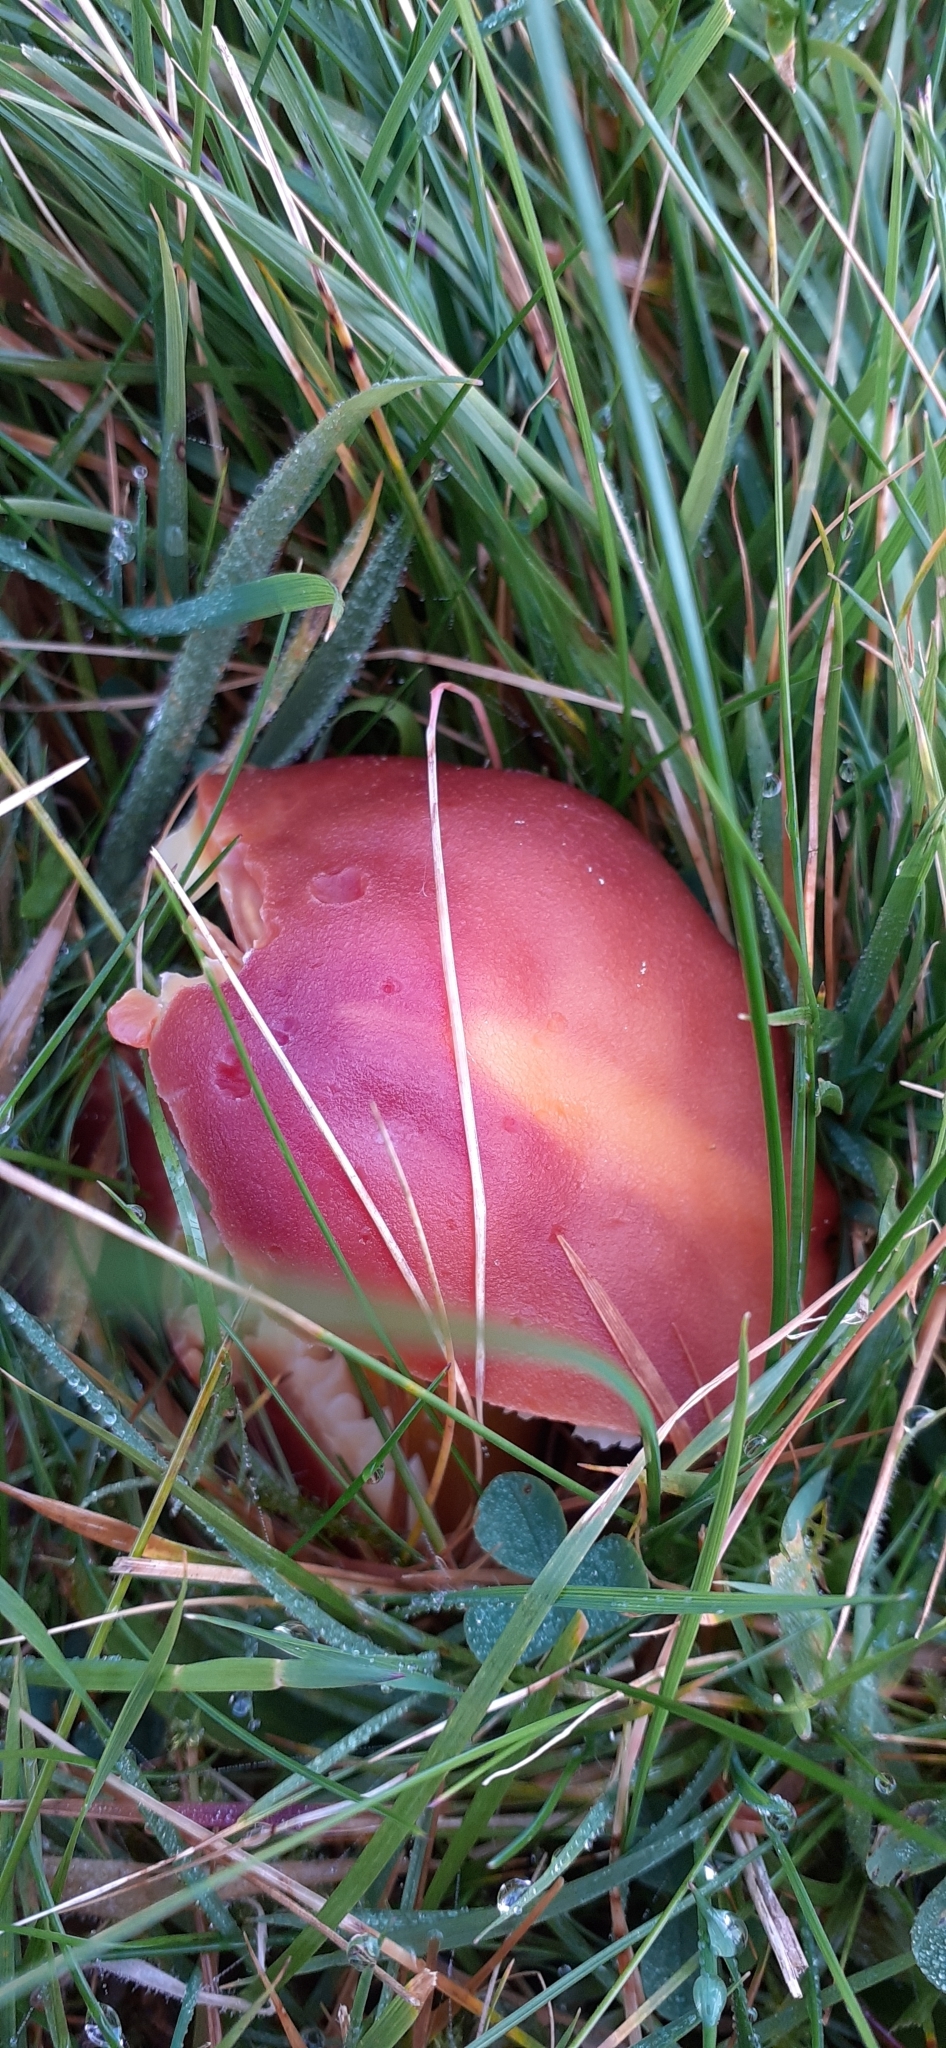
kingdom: Fungi
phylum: Basidiomycota
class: Agaricomycetes
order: Agaricales
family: Hygrophoraceae
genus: Hygrocybe
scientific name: Hygrocybe punicea
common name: Crimson waxcap
